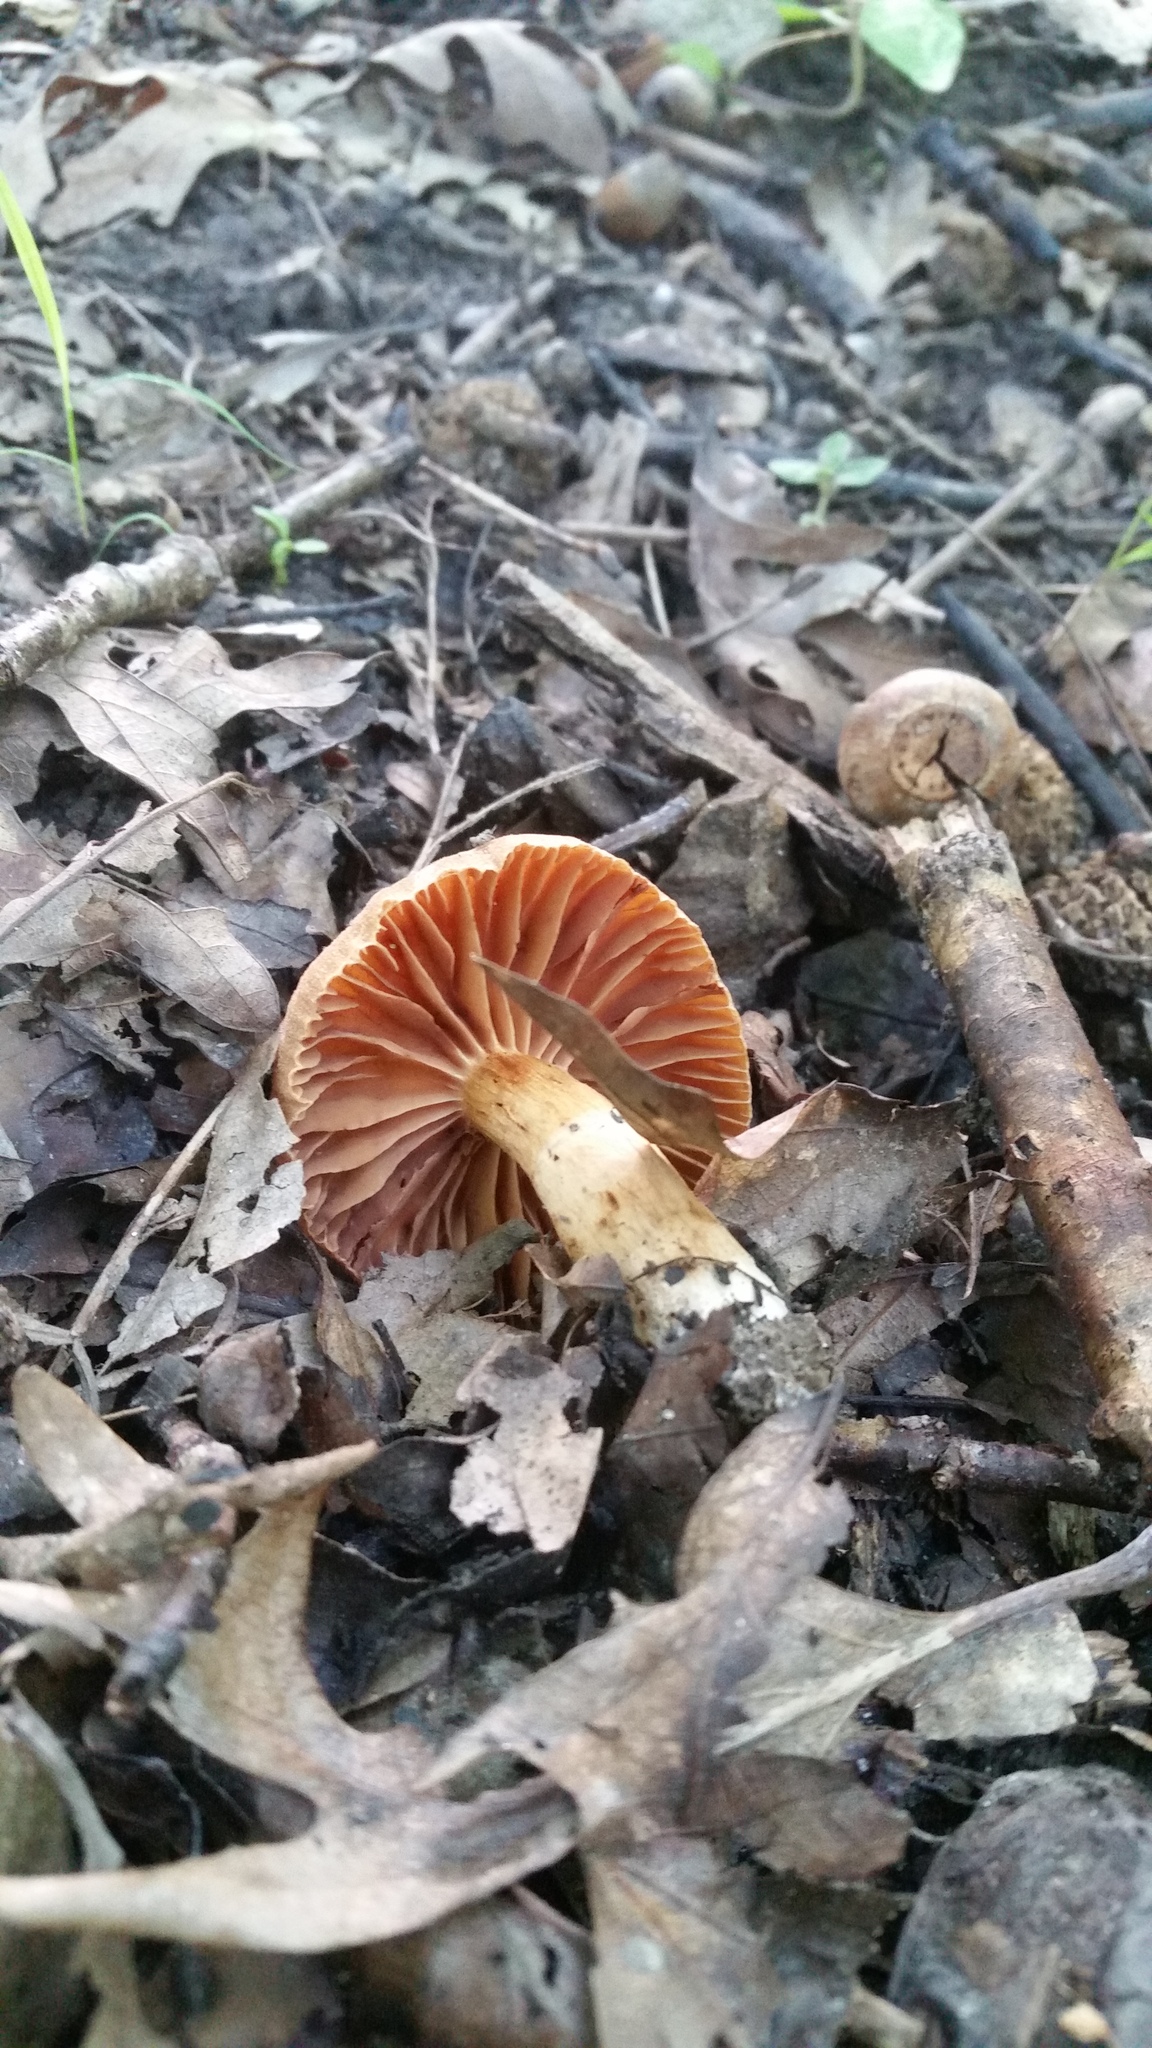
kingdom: Fungi
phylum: Basidiomycota
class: Agaricomycetes
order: Agaricales
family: Cortinariaceae
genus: Cortinarius
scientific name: Cortinarius
